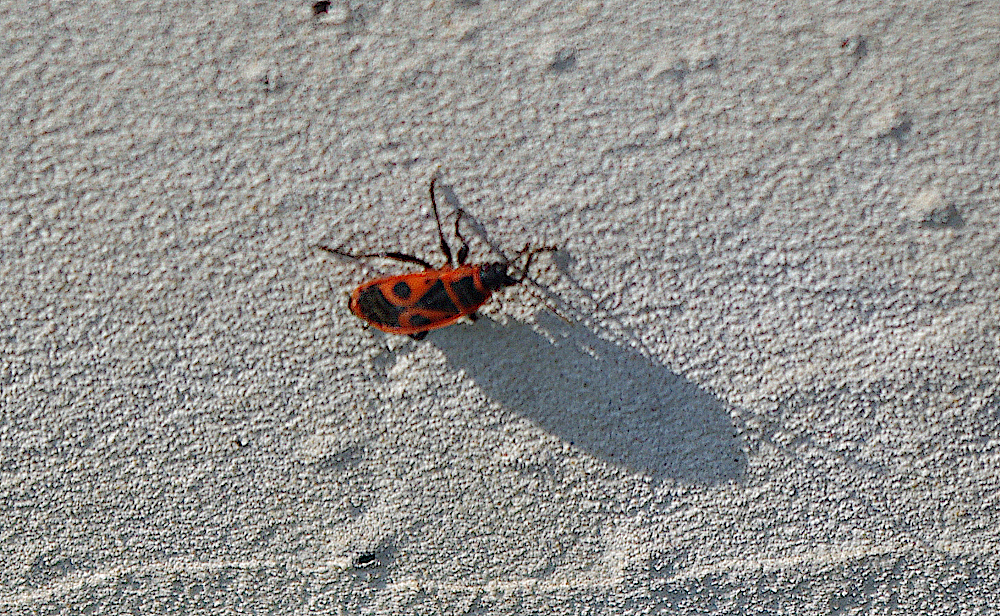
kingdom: Animalia
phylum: Arthropoda
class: Insecta
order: Hemiptera
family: Pyrrhocoridae
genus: Pyrrhocoris
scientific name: Pyrrhocoris apterus
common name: Firebug
